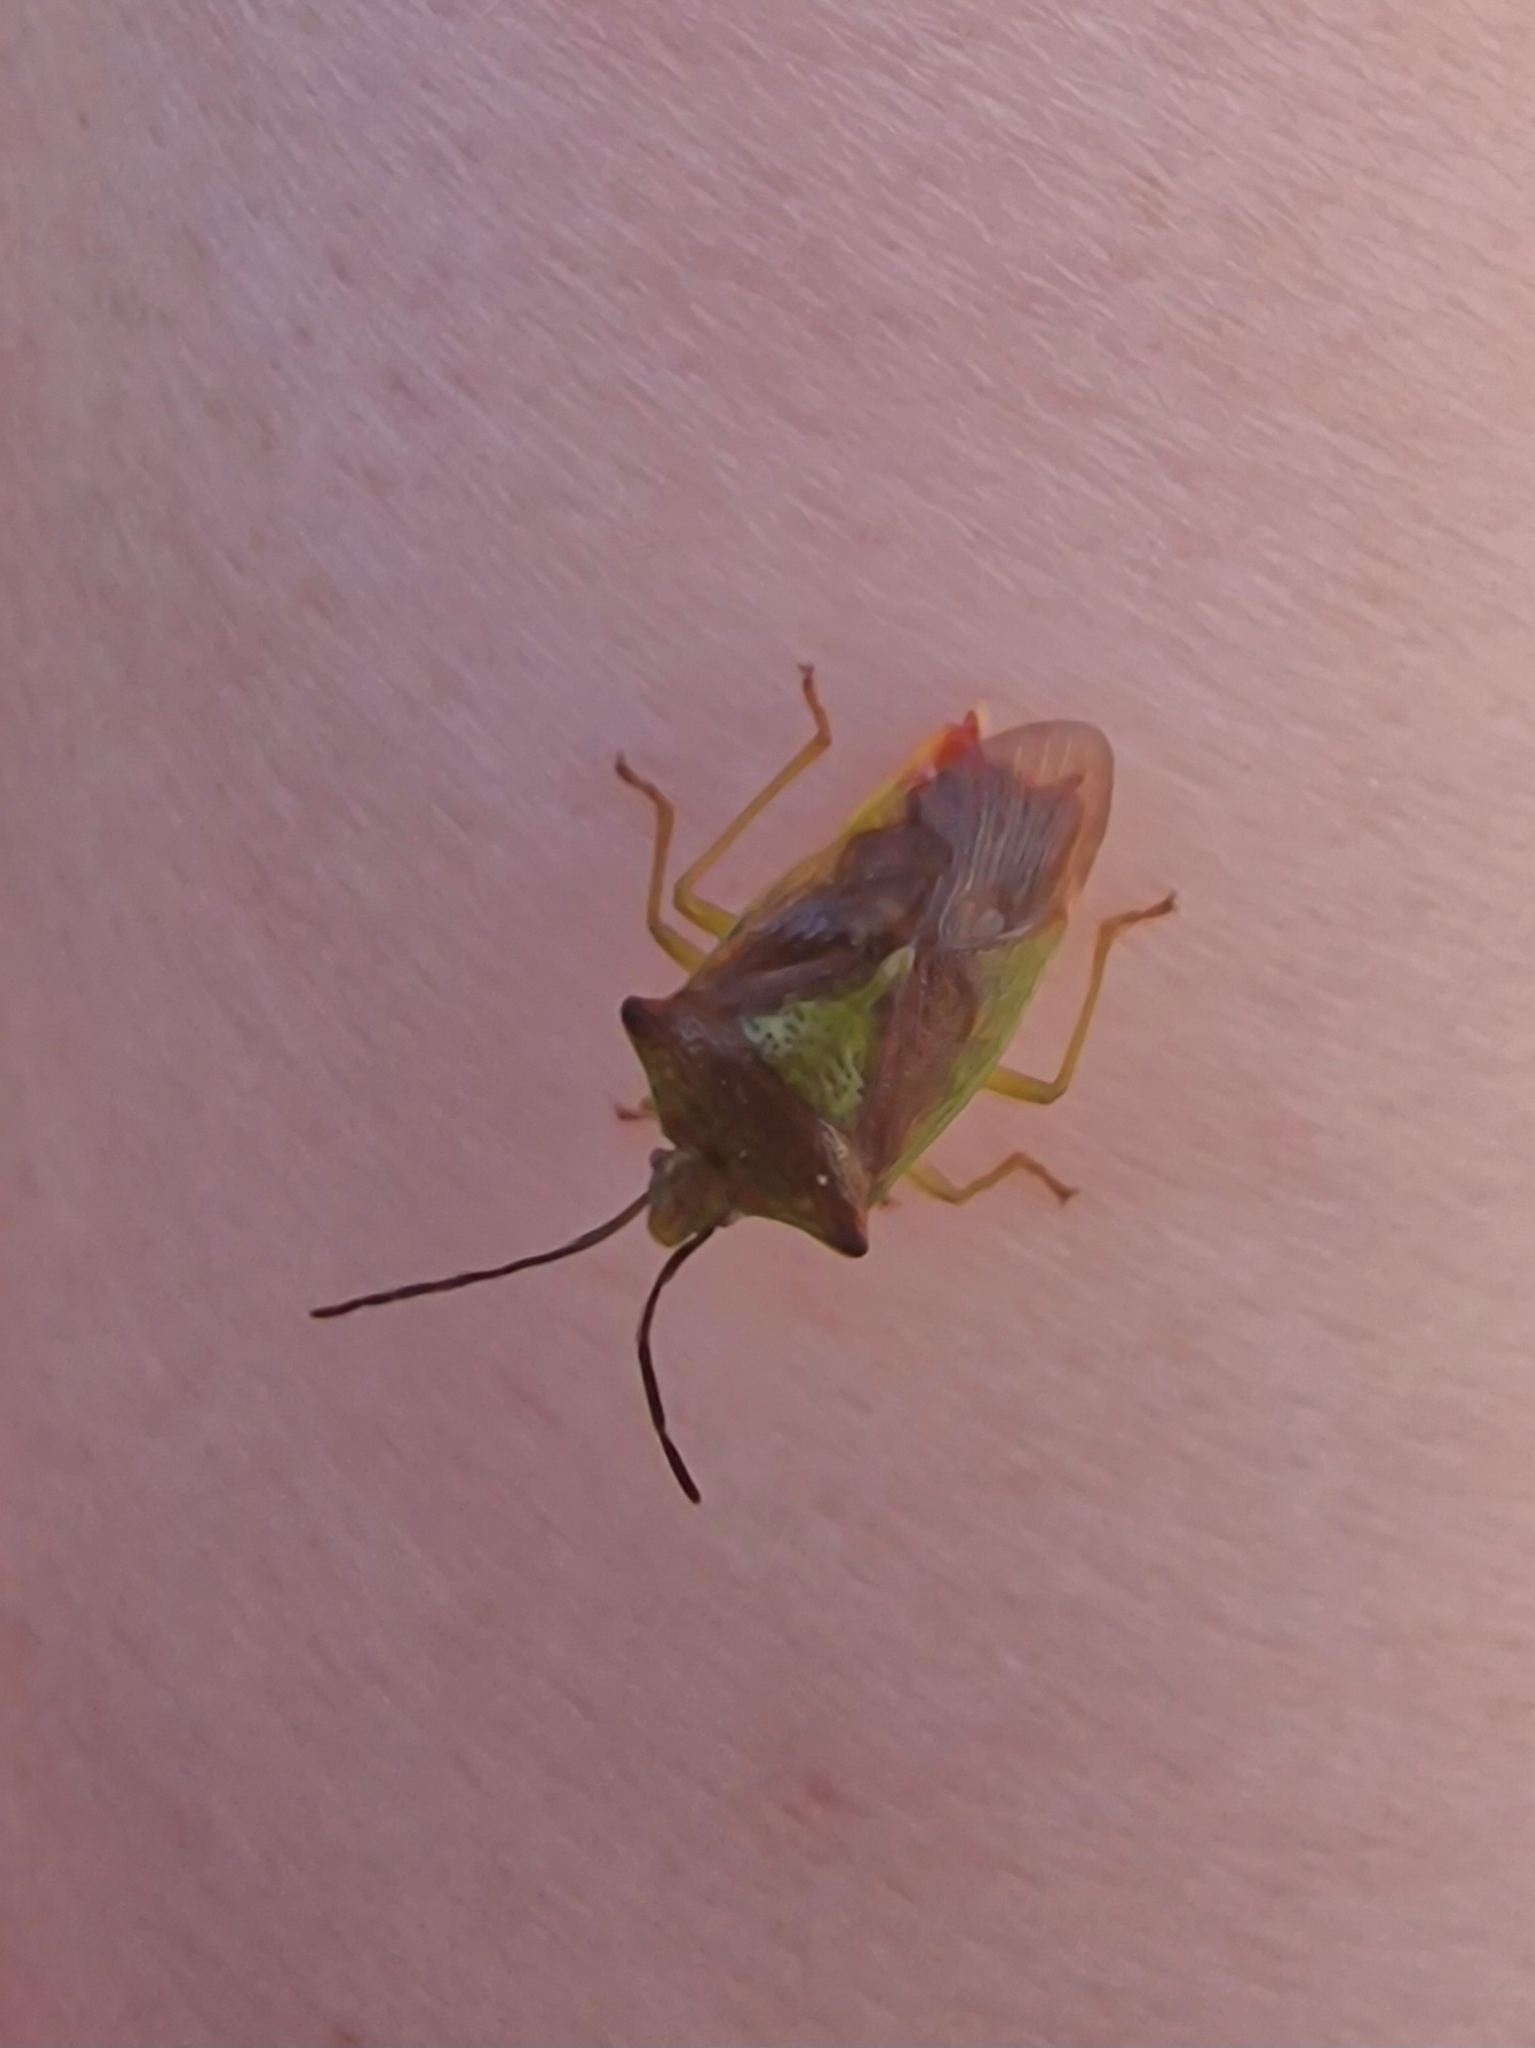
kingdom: Animalia
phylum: Arthropoda
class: Insecta
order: Hemiptera
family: Acanthosomatidae
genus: Acanthosoma
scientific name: Acanthosoma haemorrhoidale
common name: Hawthorn shieldbug
